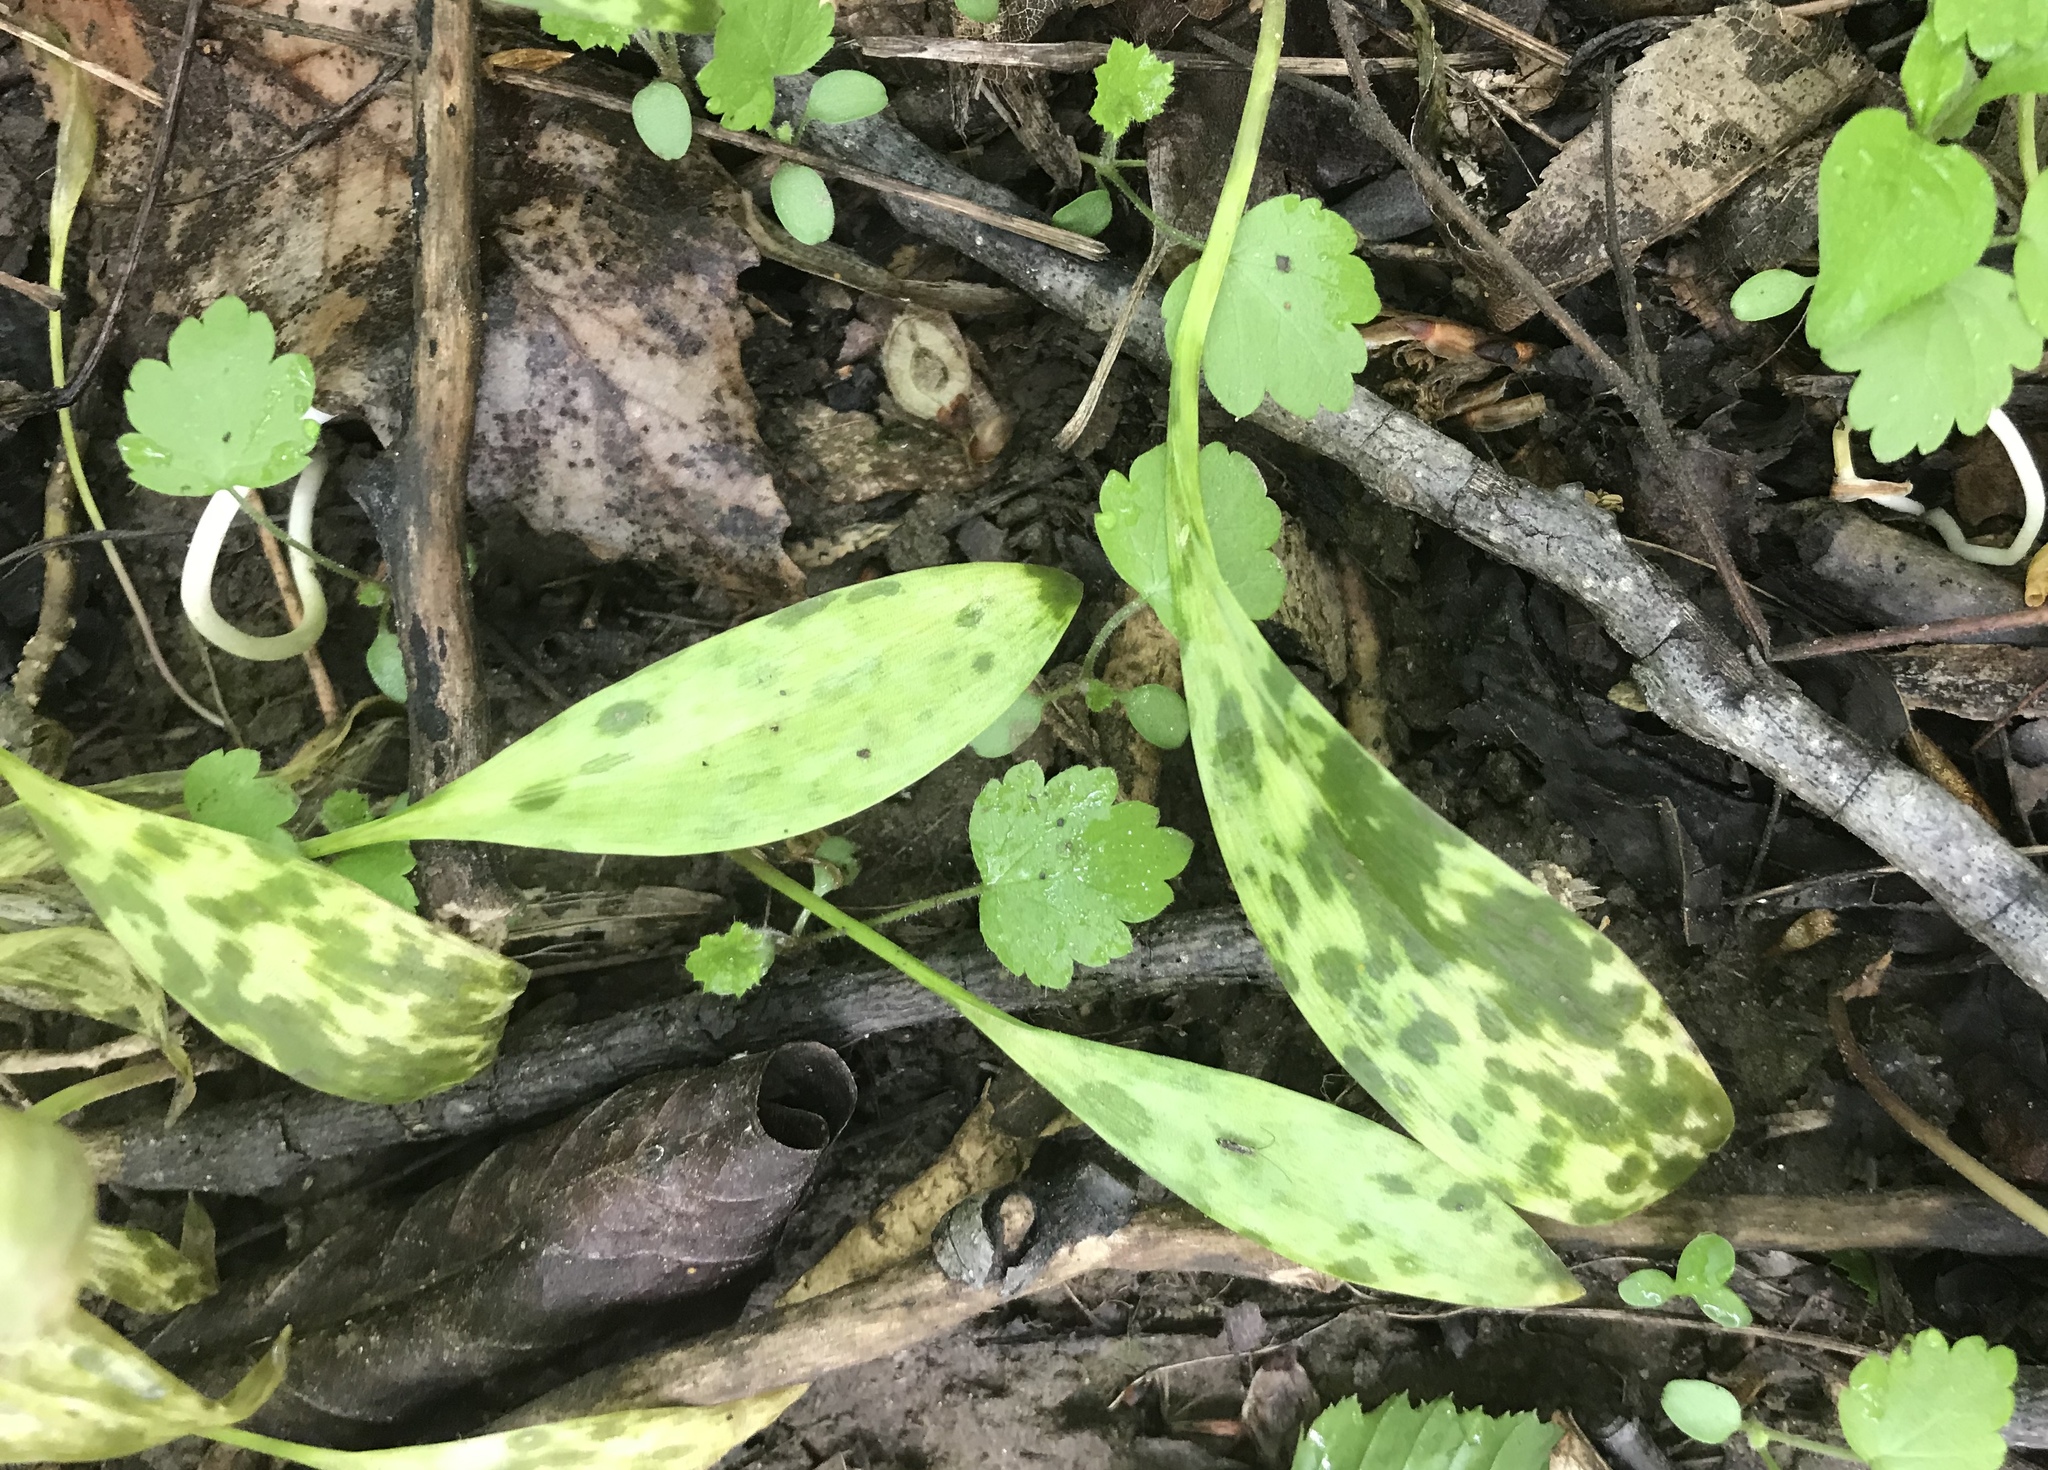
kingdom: Plantae
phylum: Tracheophyta
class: Liliopsida
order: Liliales
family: Liliaceae
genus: Erythronium
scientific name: Erythronium americanum
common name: Yellow adder's-tongue
